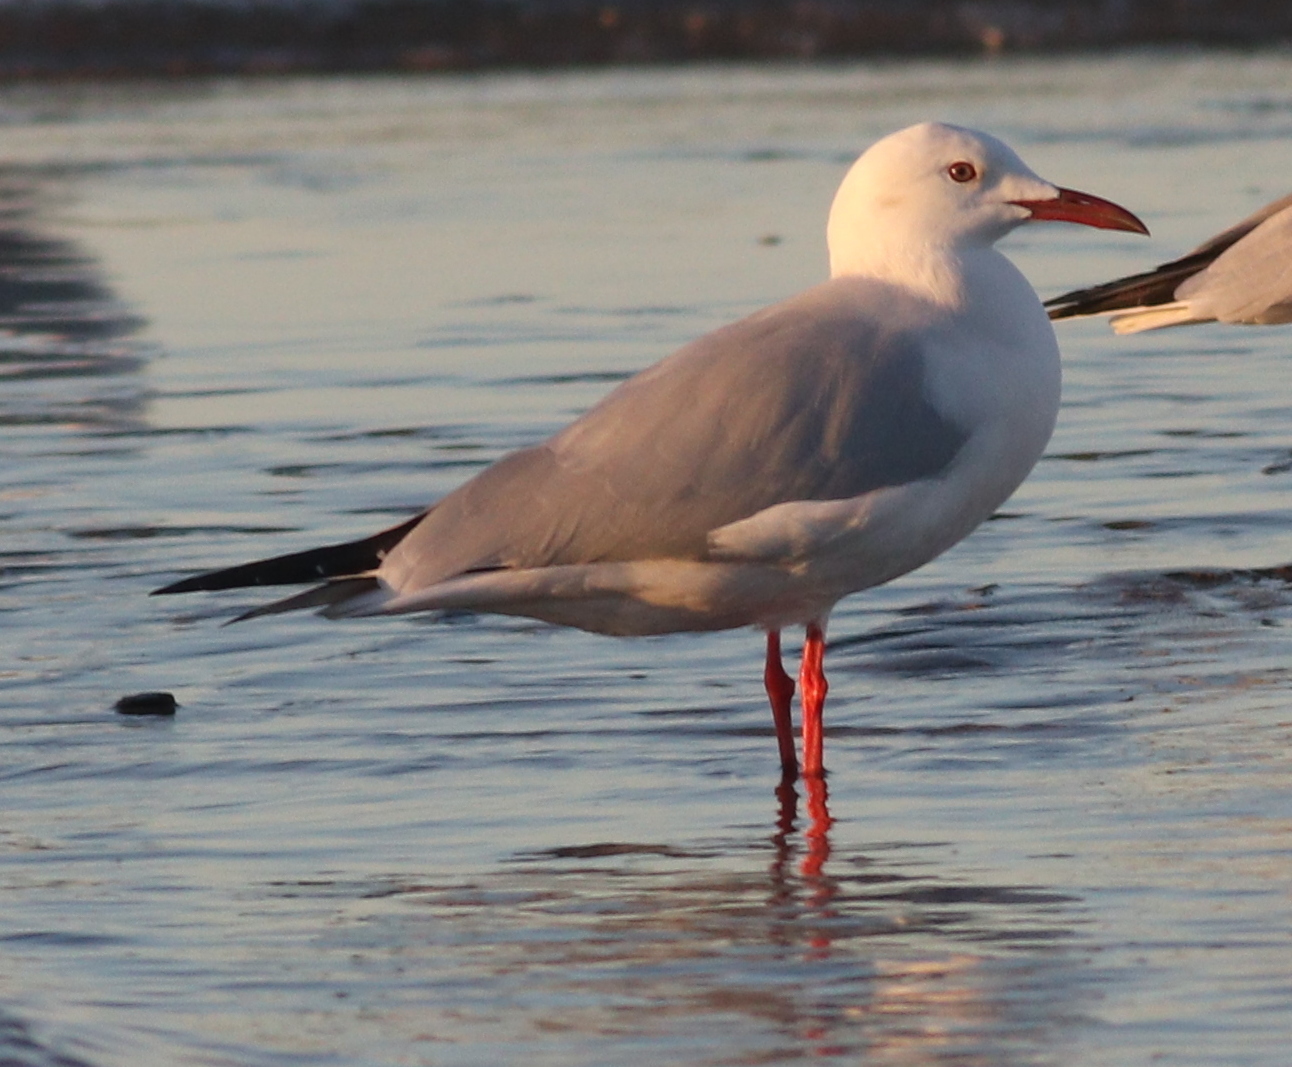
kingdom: Animalia
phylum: Chordata
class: Aves
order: Charadriiformes
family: Laridae
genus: Chroicocephalus
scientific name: Chroicocephalus genei
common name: Slender-billed gull
